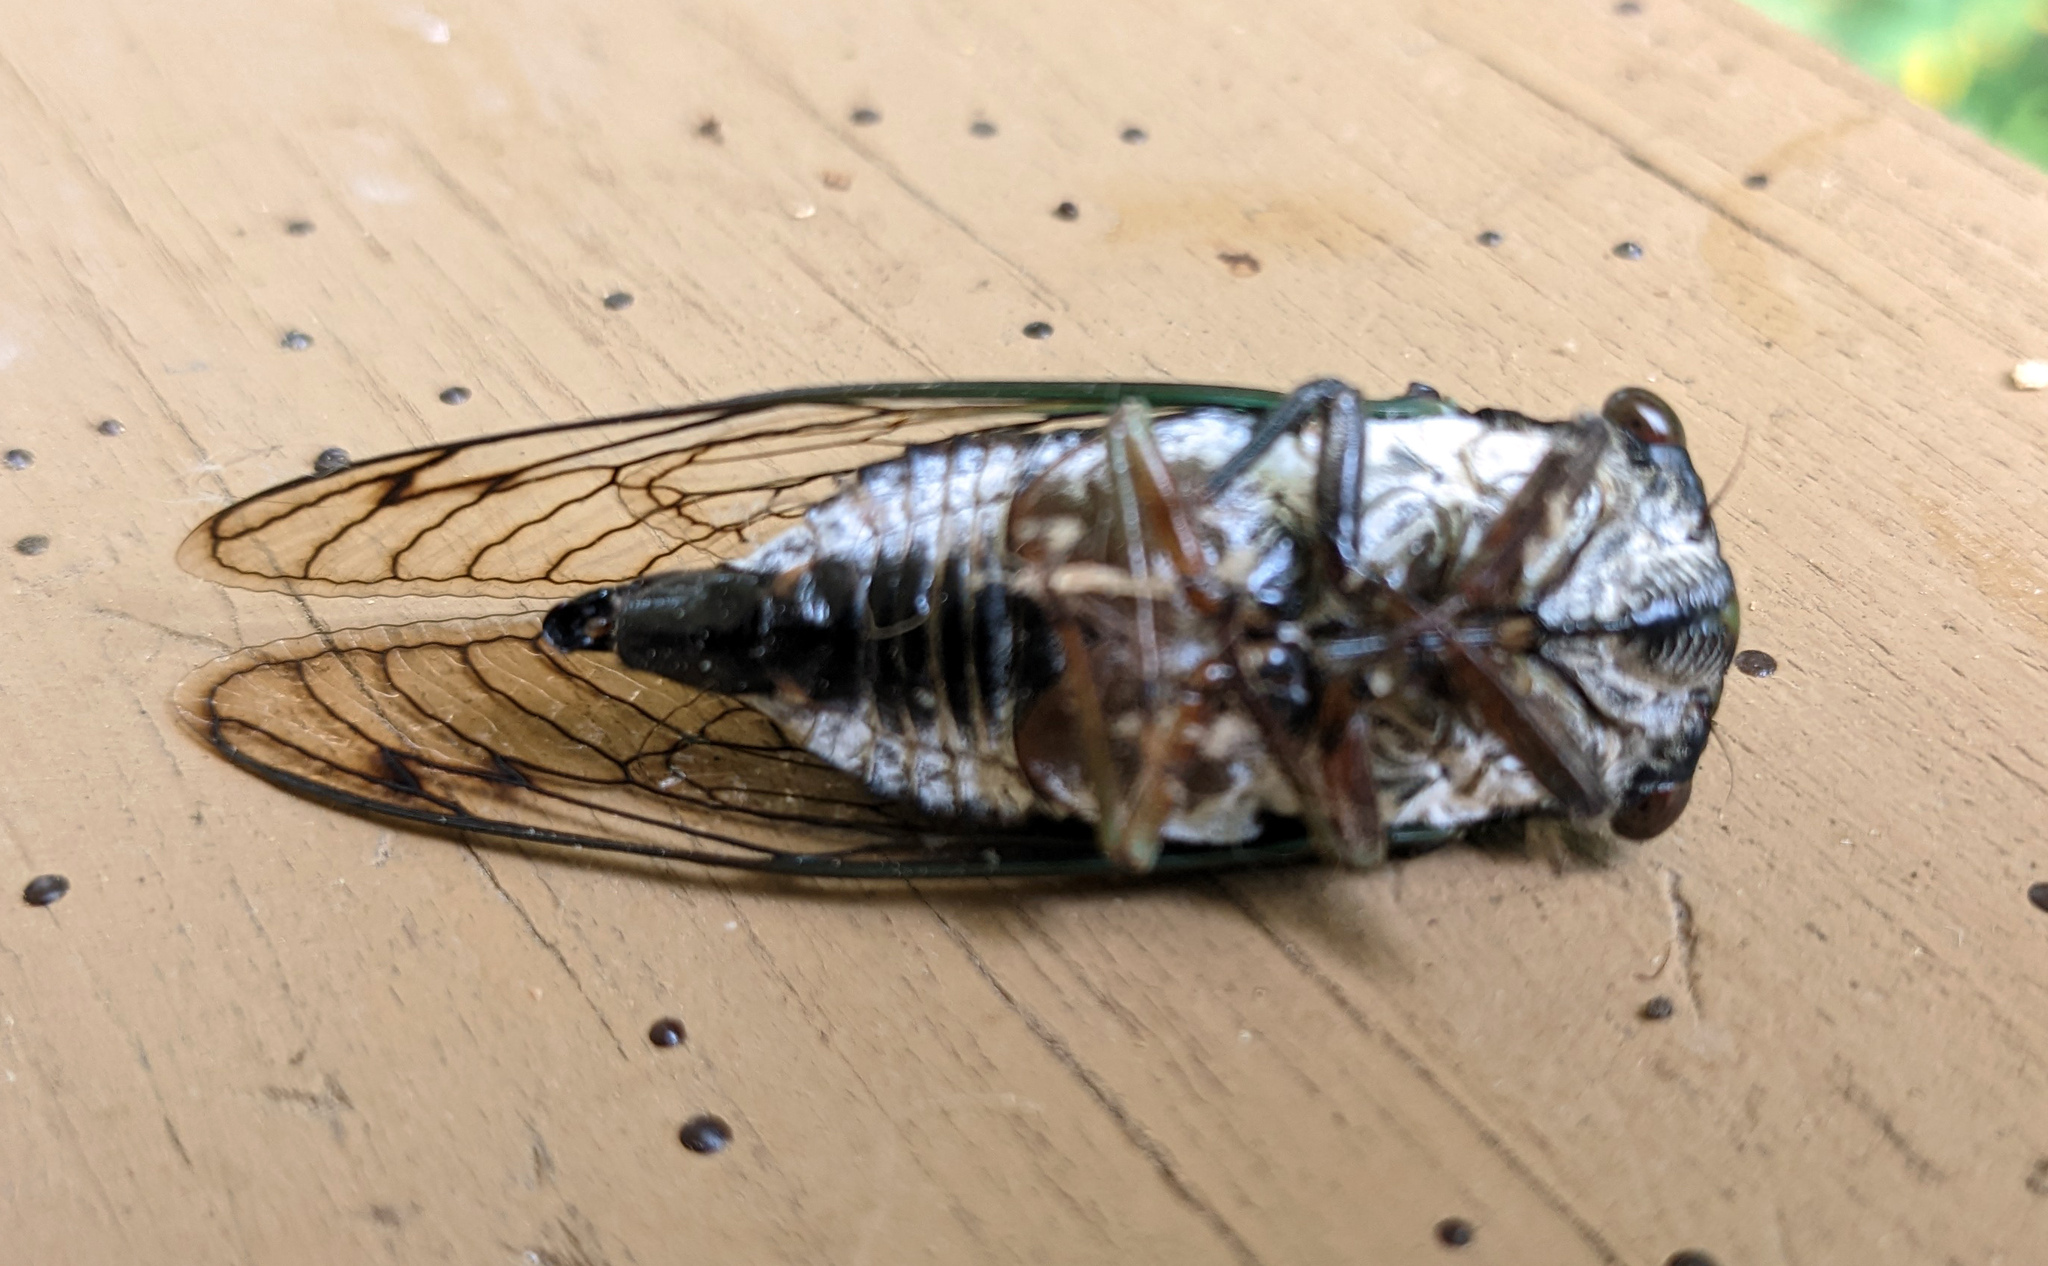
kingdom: Animalia
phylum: Arthropoda
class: Insecta
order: Hemiptera
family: Cicadidae
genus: Neotibicen
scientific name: Neotibicen lyricen
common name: Lyric cicada
